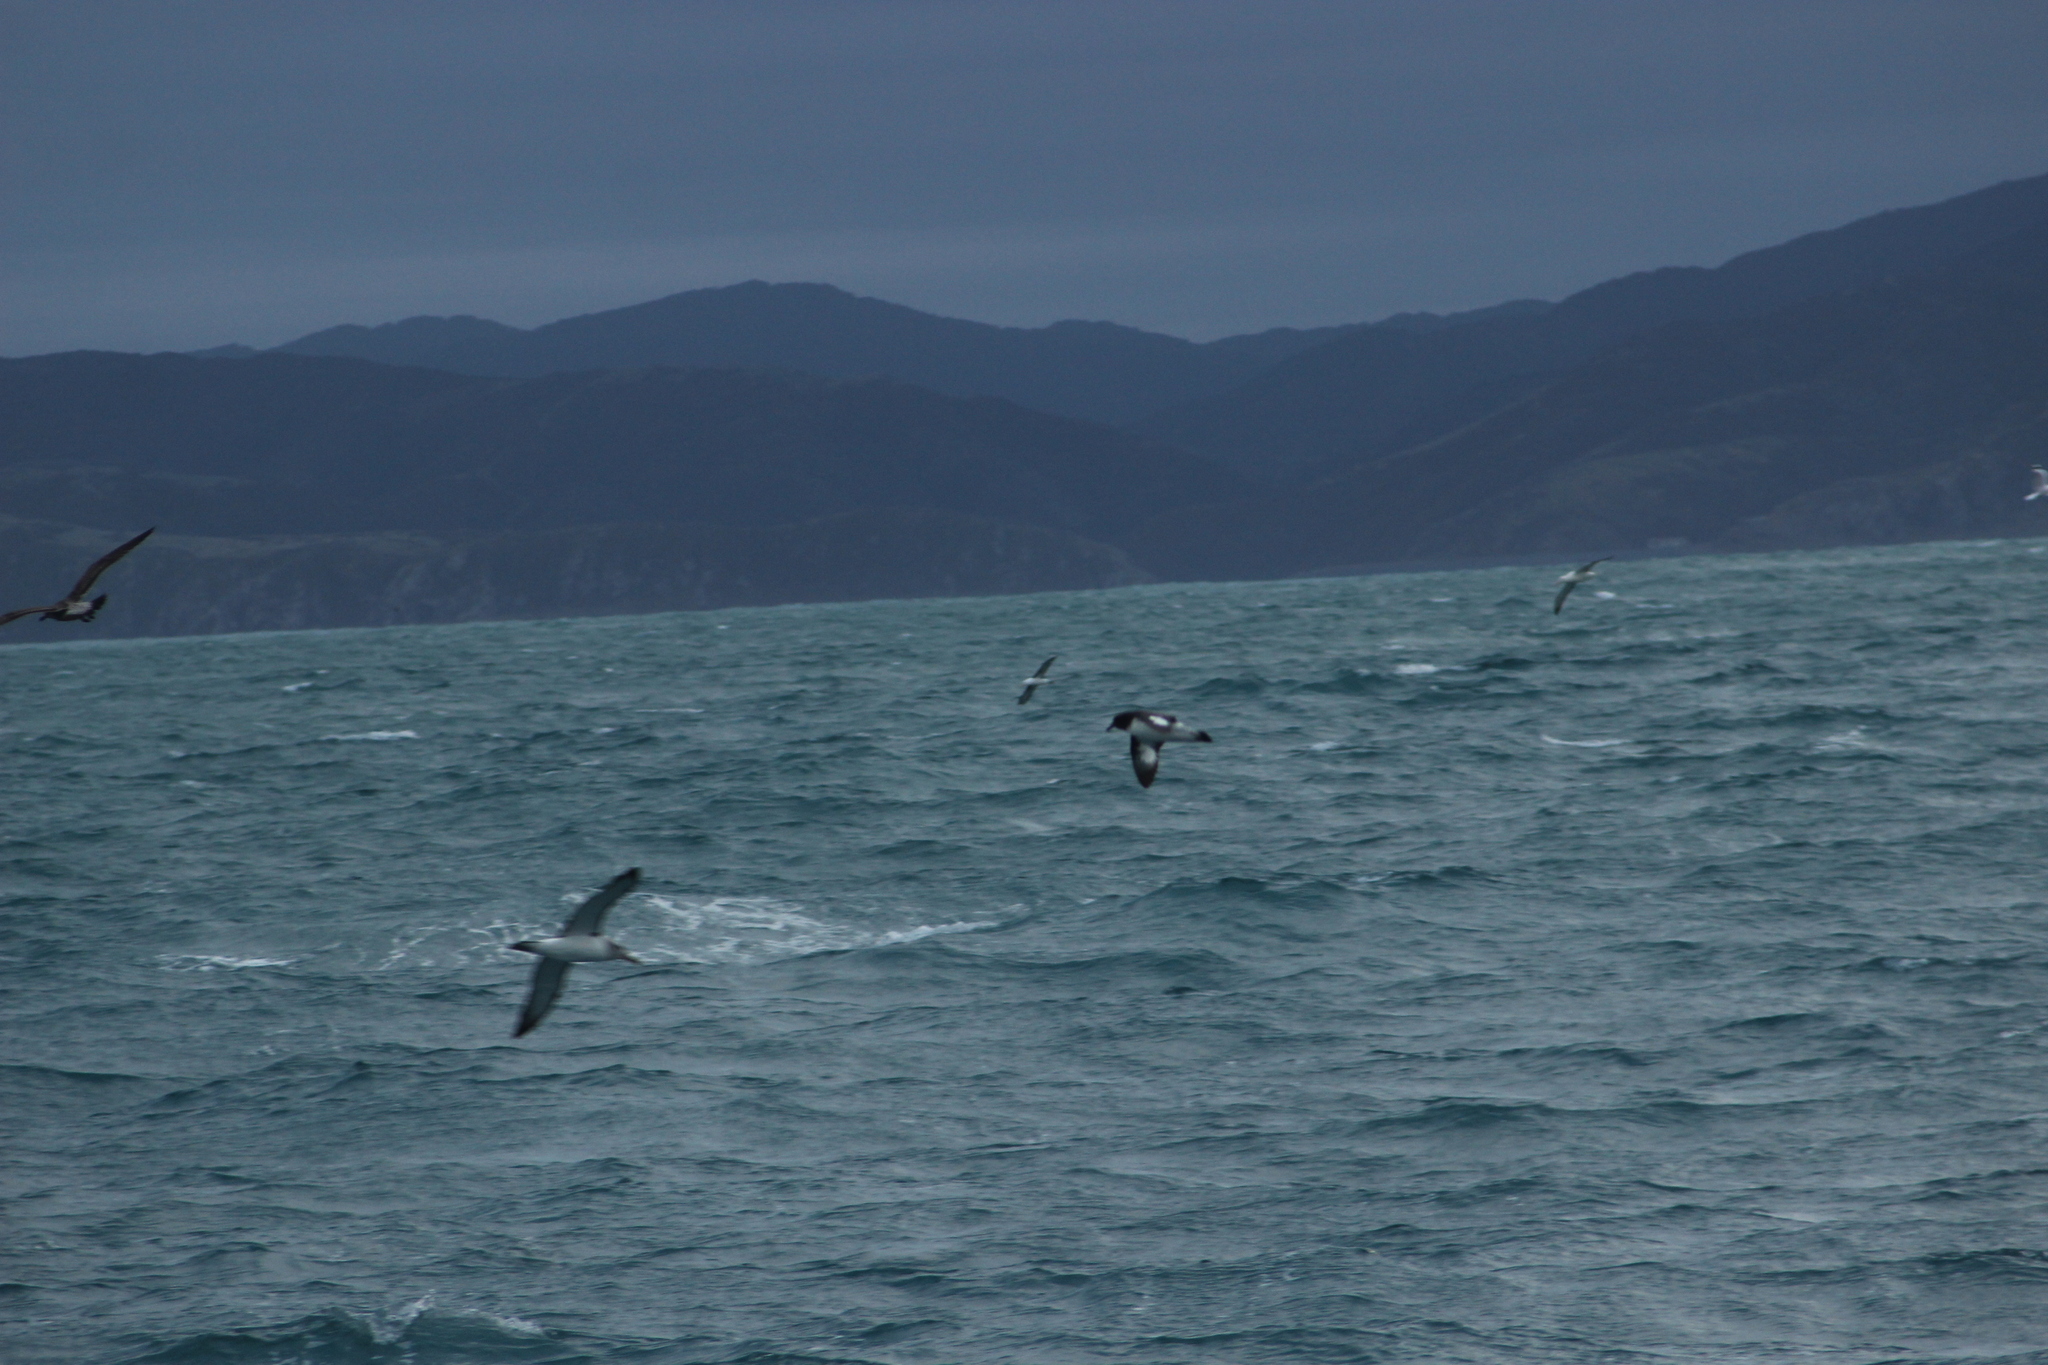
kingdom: Animalia
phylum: Chordata
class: Aves
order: Procellariiformes
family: Procellariidae
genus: Daption
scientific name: Daption capense
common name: Cape petrel
